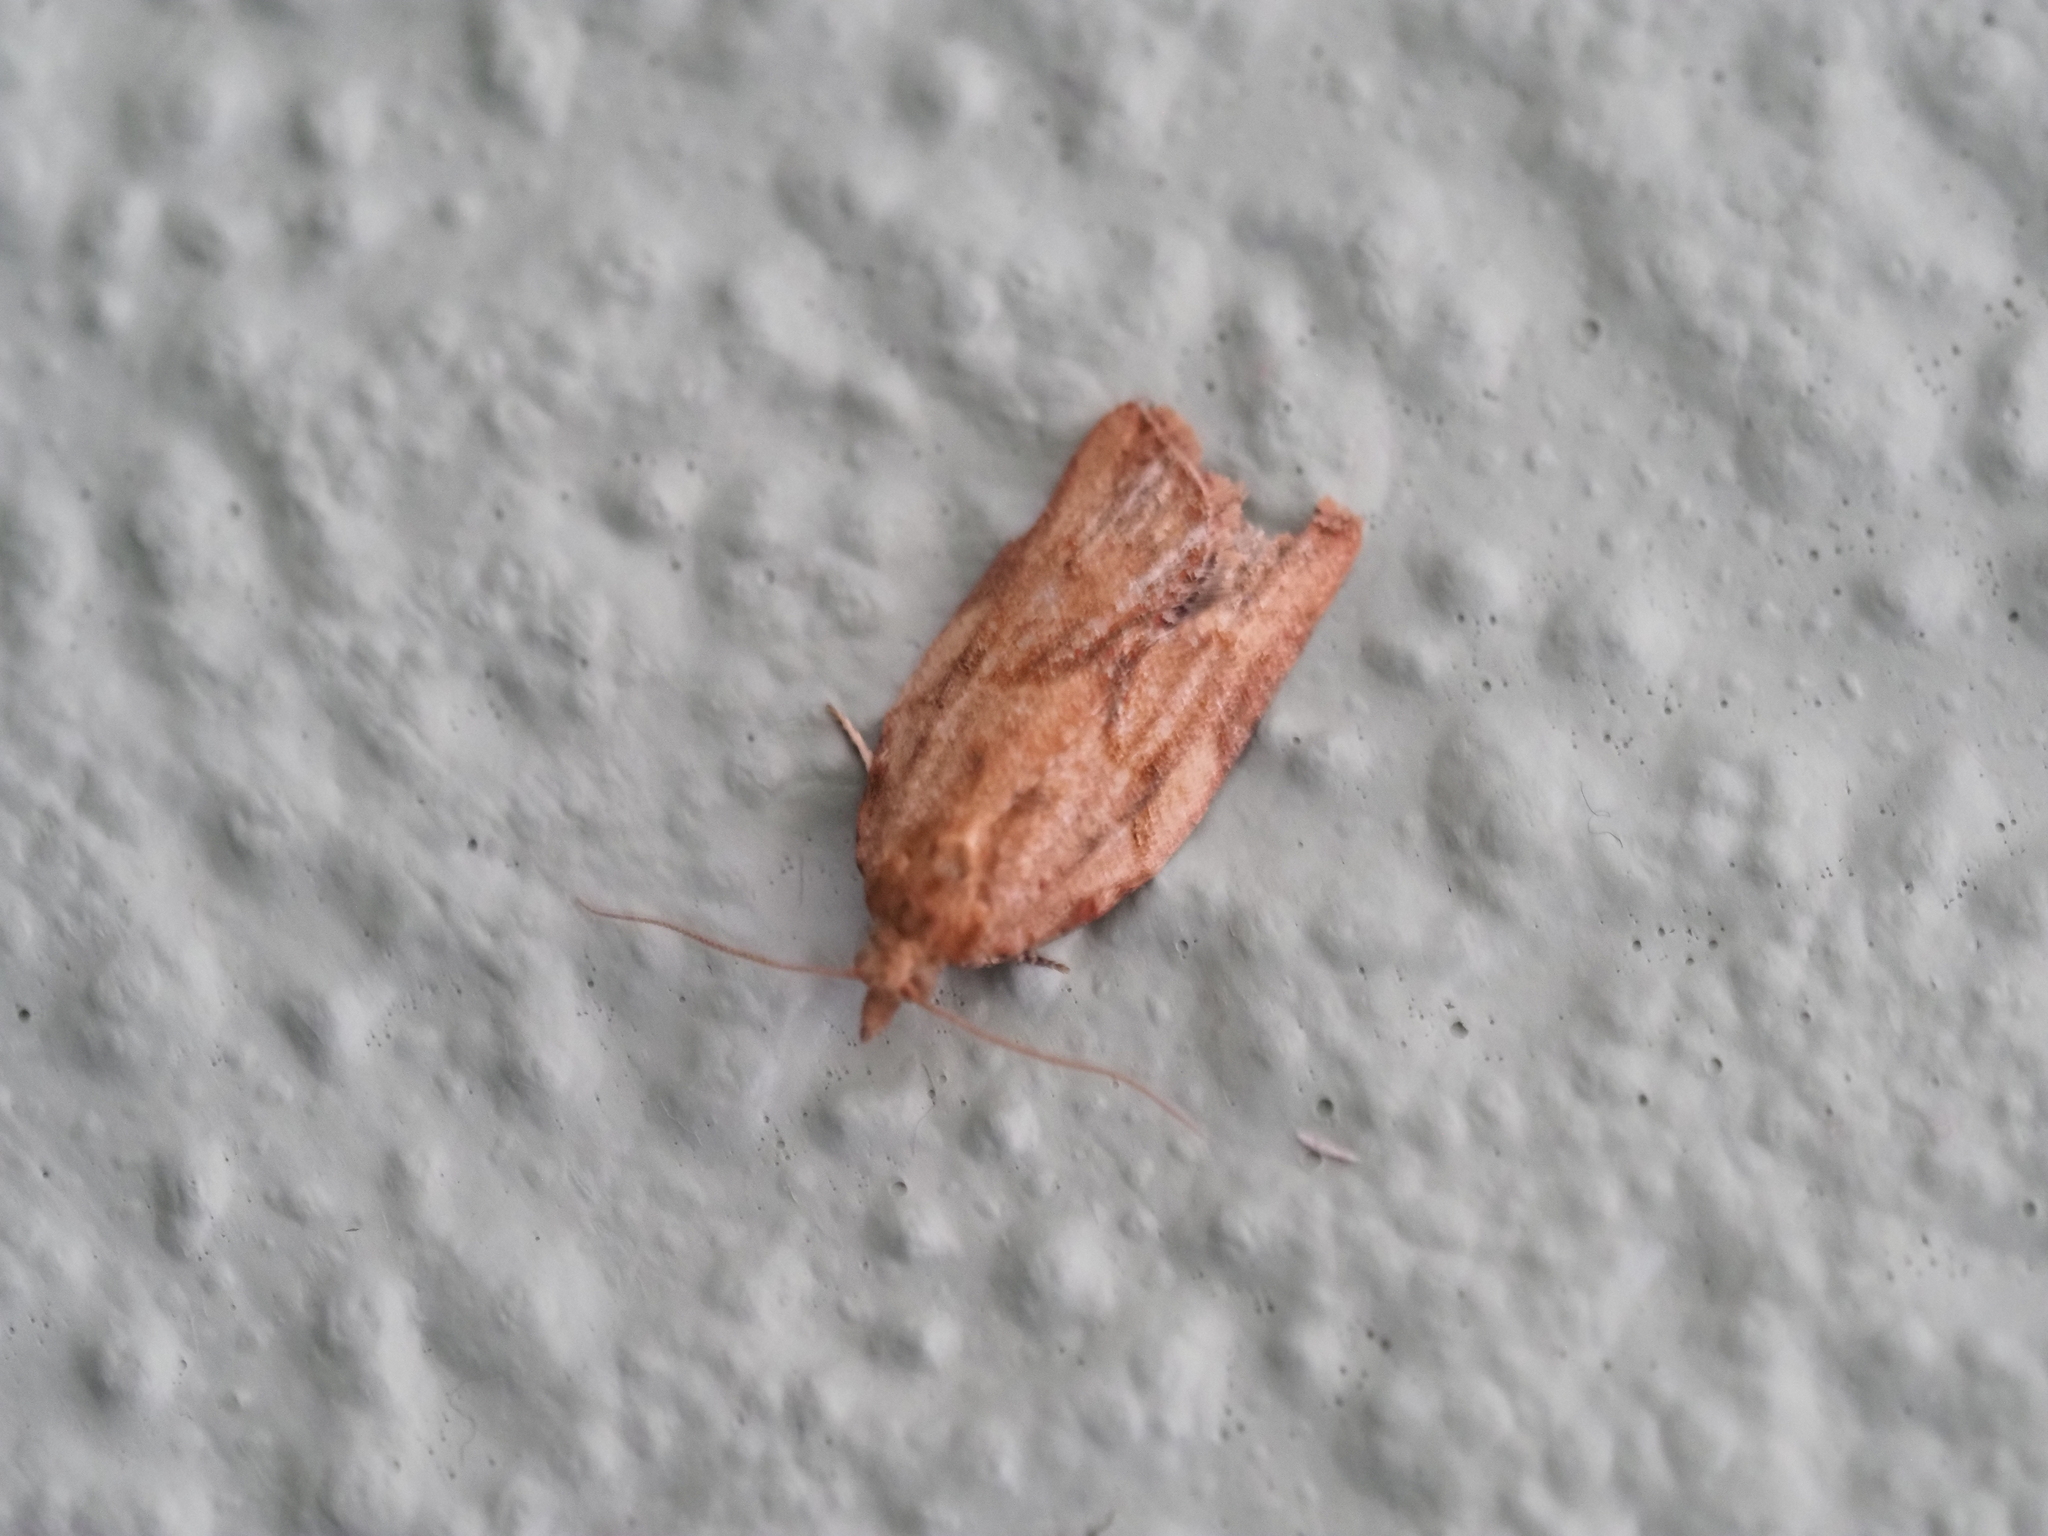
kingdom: Animalia
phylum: Arthropoda
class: Insecta
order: Lepidoptera
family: Tortricidae
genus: Epiphyas
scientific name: Epiphyas postvittana
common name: Light brown apple moth
